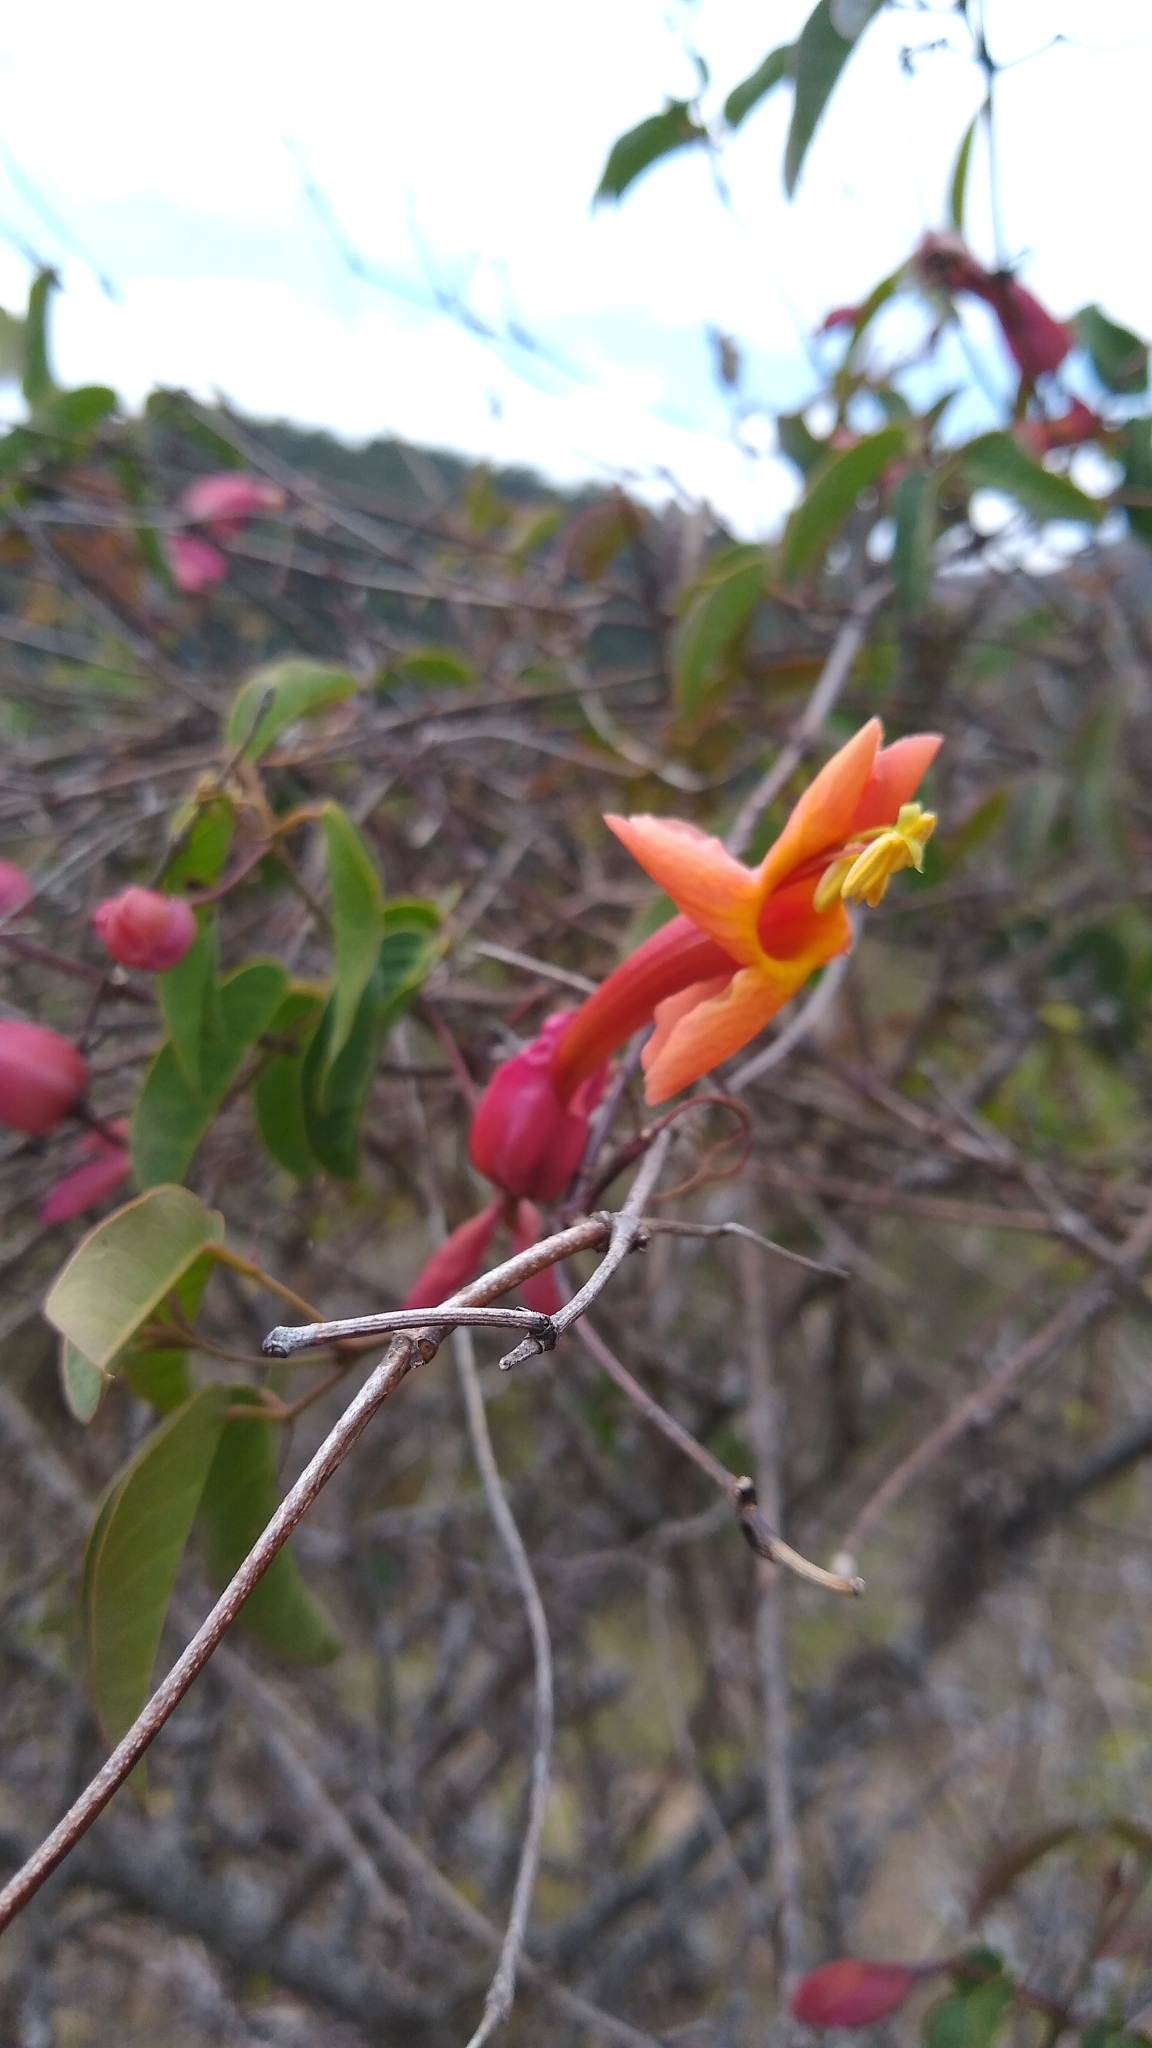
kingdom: Plantae
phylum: Tracheophyta
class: Magnoliopsida
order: Lamiales
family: Bignoniaceae
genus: Dolichandra
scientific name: Dolichandra cynanchoides
